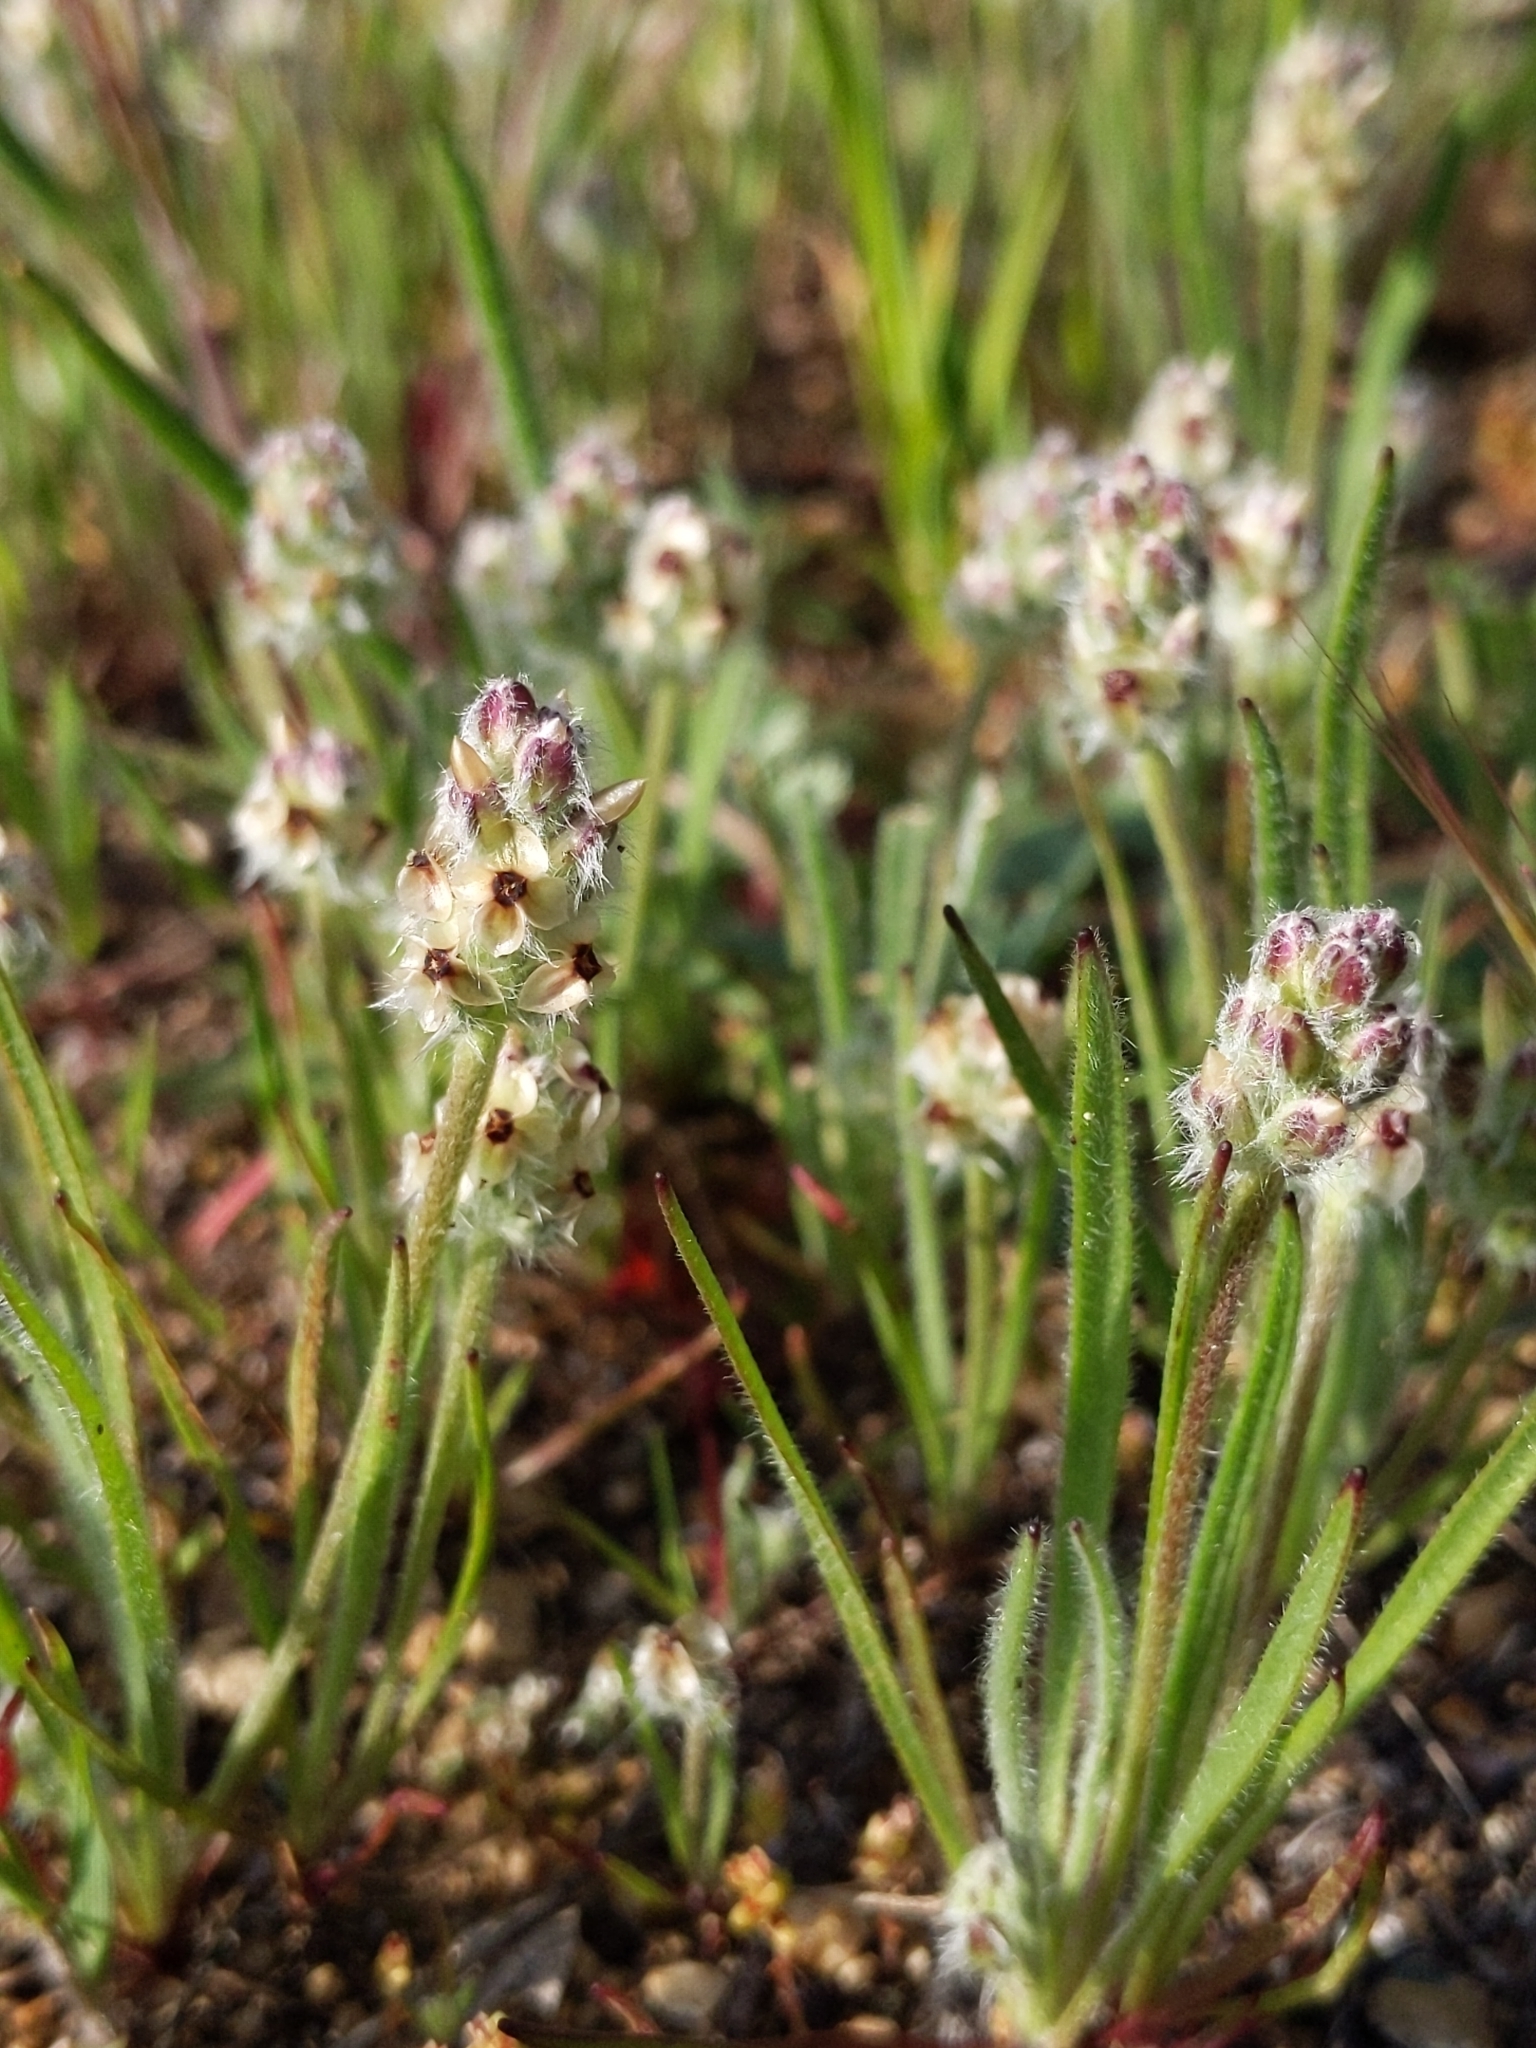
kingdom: Plantae
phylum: Tracheophyta
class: Magnoliopsida
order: Lamiales
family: Plantaginaceae
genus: Plantago
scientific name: Plantago erecta
